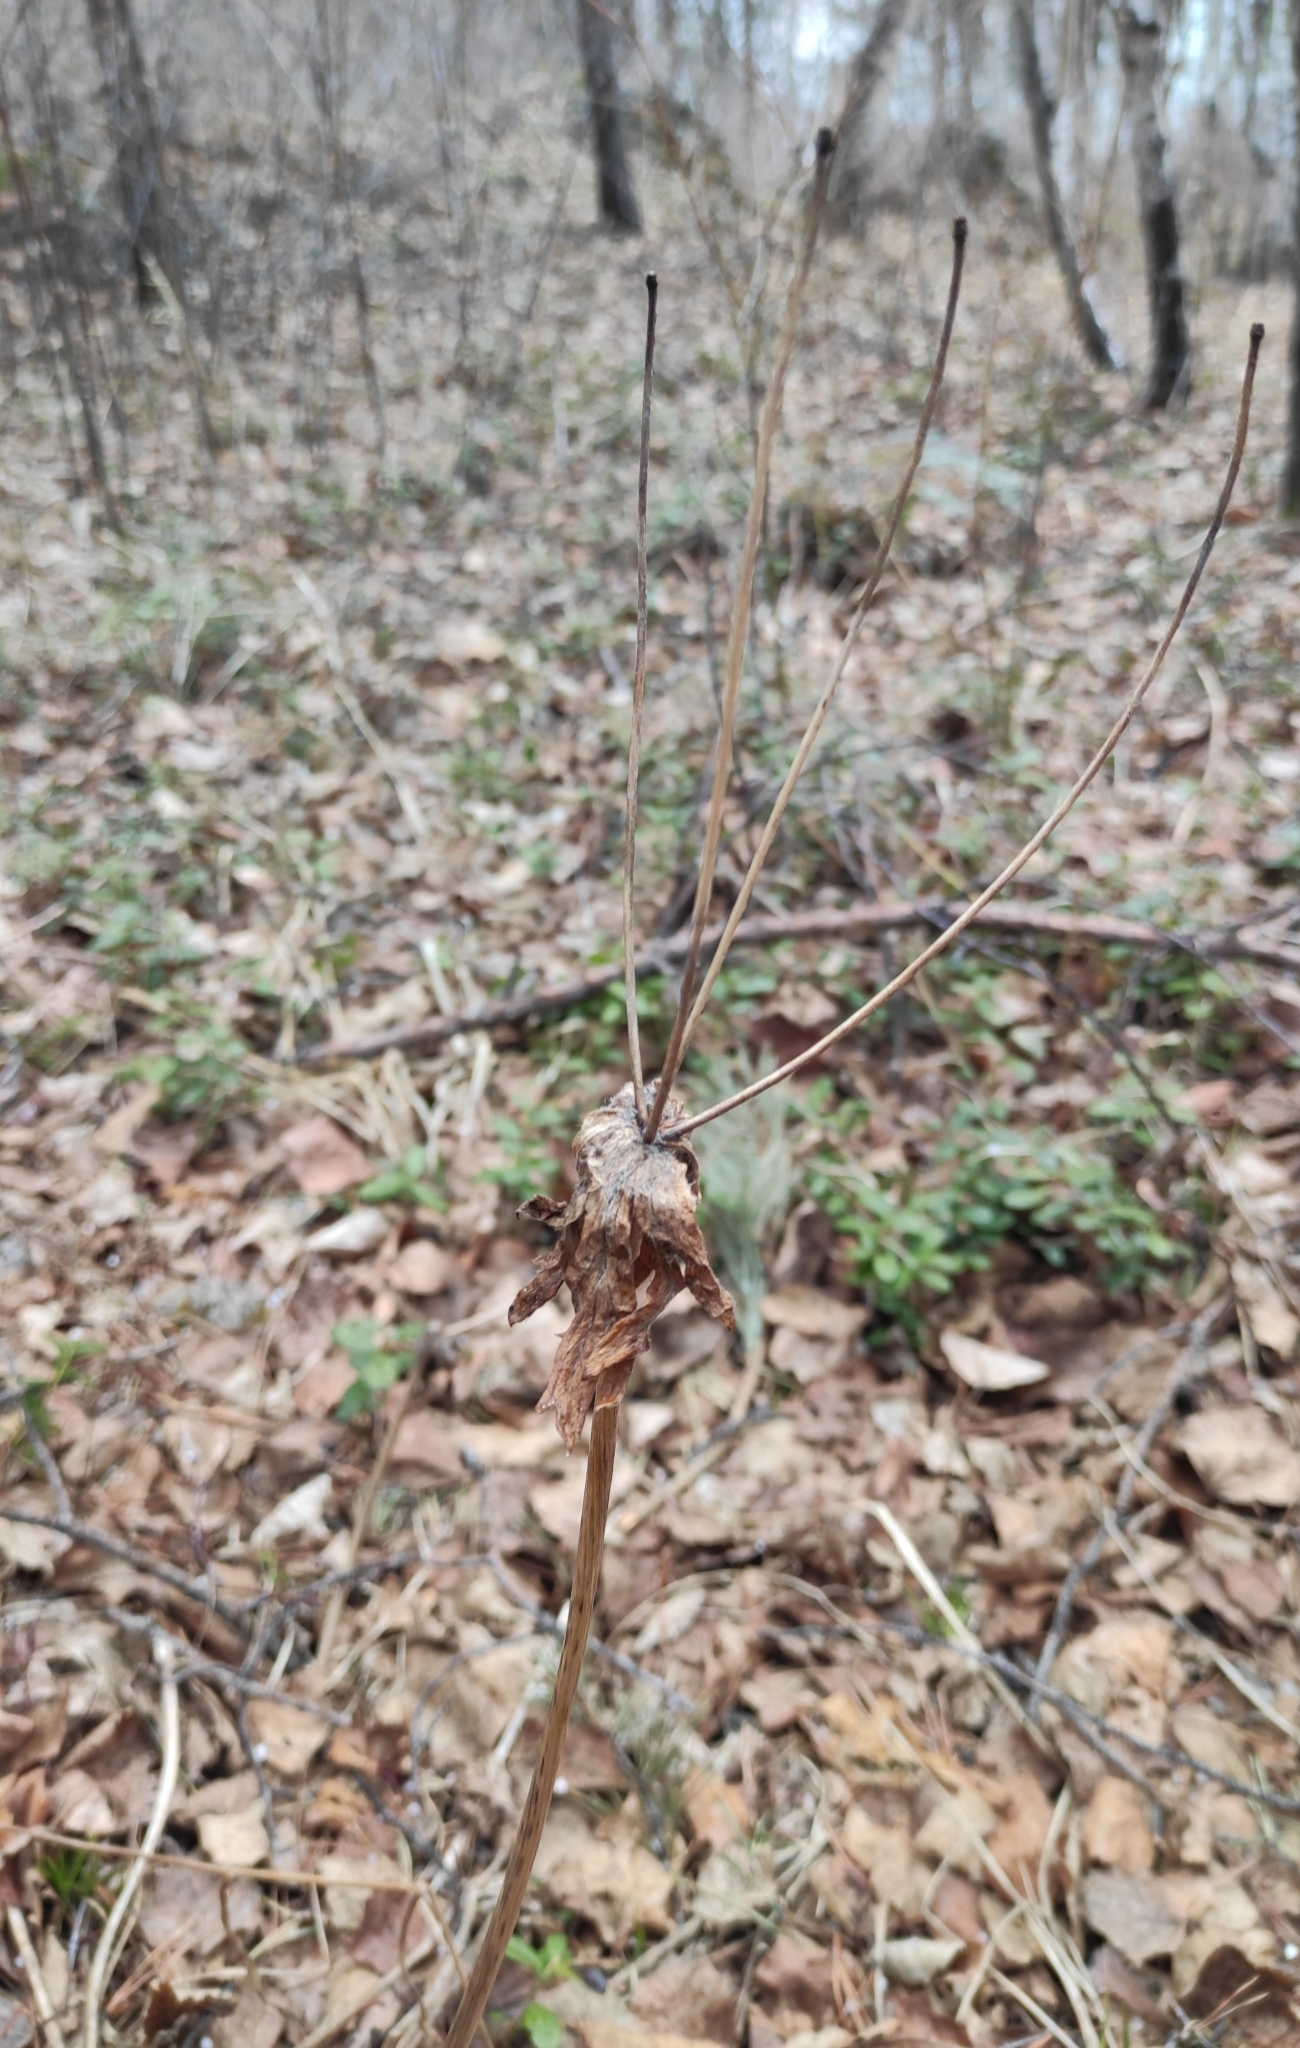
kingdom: Plantae
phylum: Tracheophyta
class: Magnoliopsida
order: Ranunculales
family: Ranunculaceae
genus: Anemonastrum
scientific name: Anemonastrum narcissiflorum
